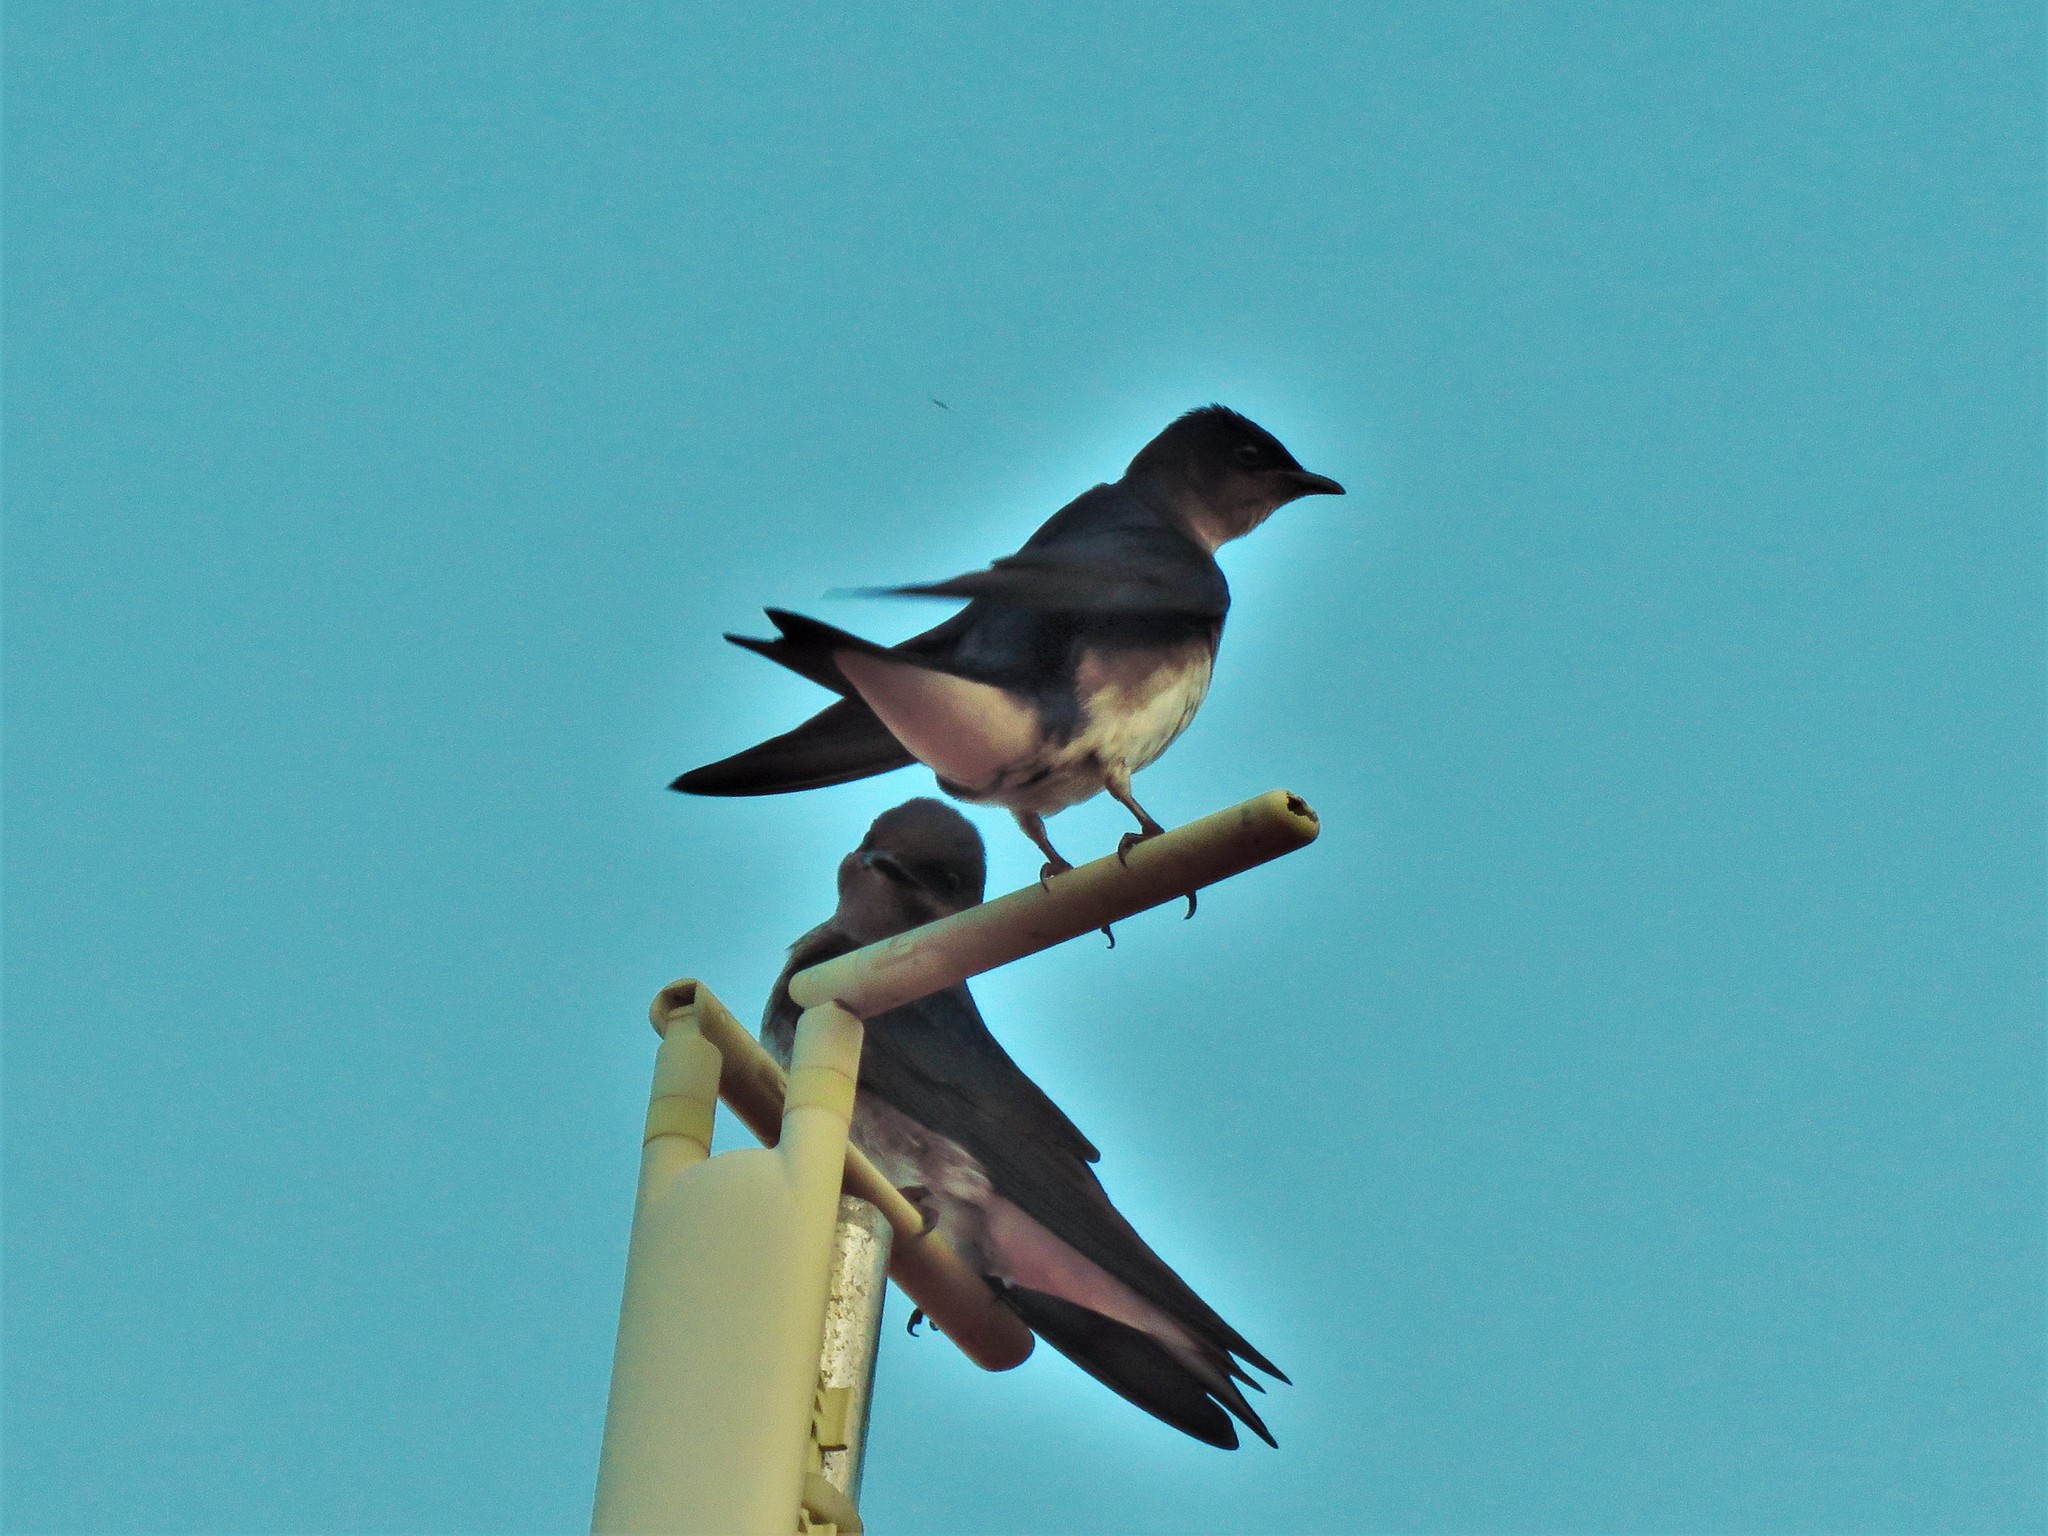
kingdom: Animalia
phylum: Chordata
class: Aves
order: Passeriformes
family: Hirundinidae
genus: Progne
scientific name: Progne chalybea
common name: Grey-breasted martin
